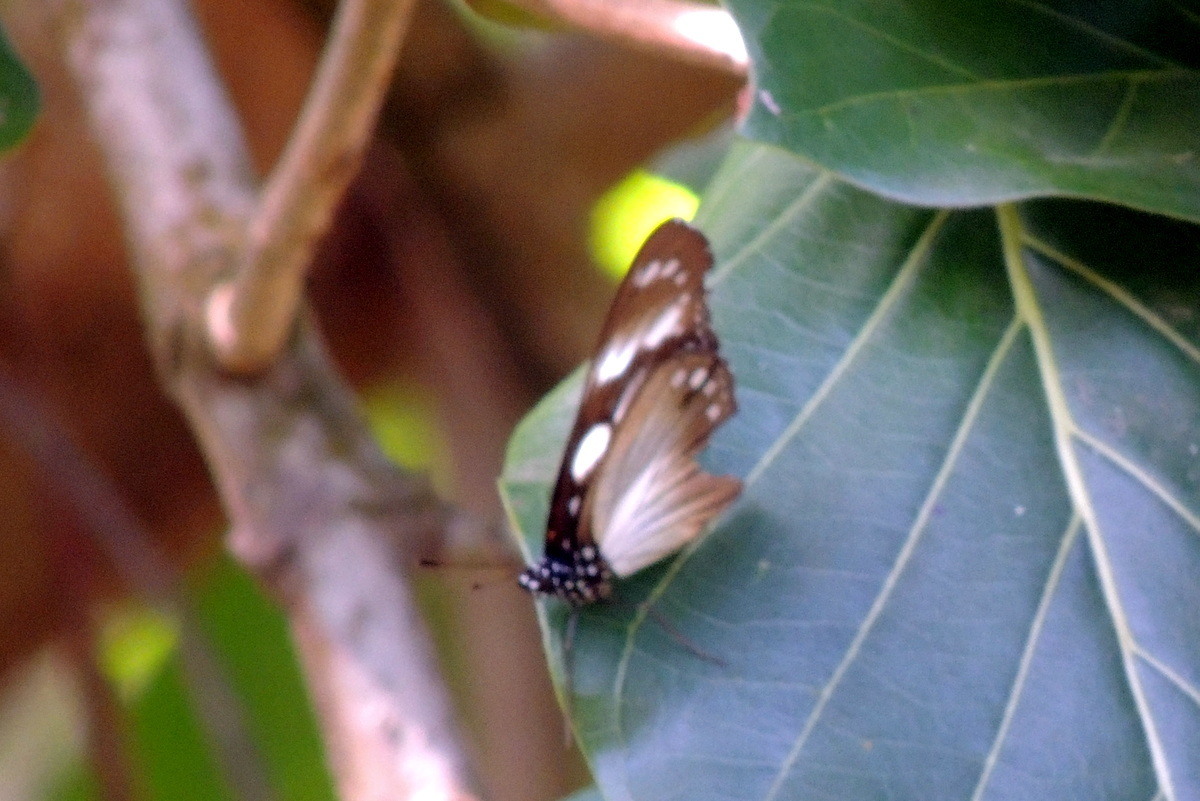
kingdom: Animalia
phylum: Arthropoda
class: Insecta
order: Lepidoptera
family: Nymphalidae
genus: Hypolimnas
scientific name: Hypolimnas dubius
